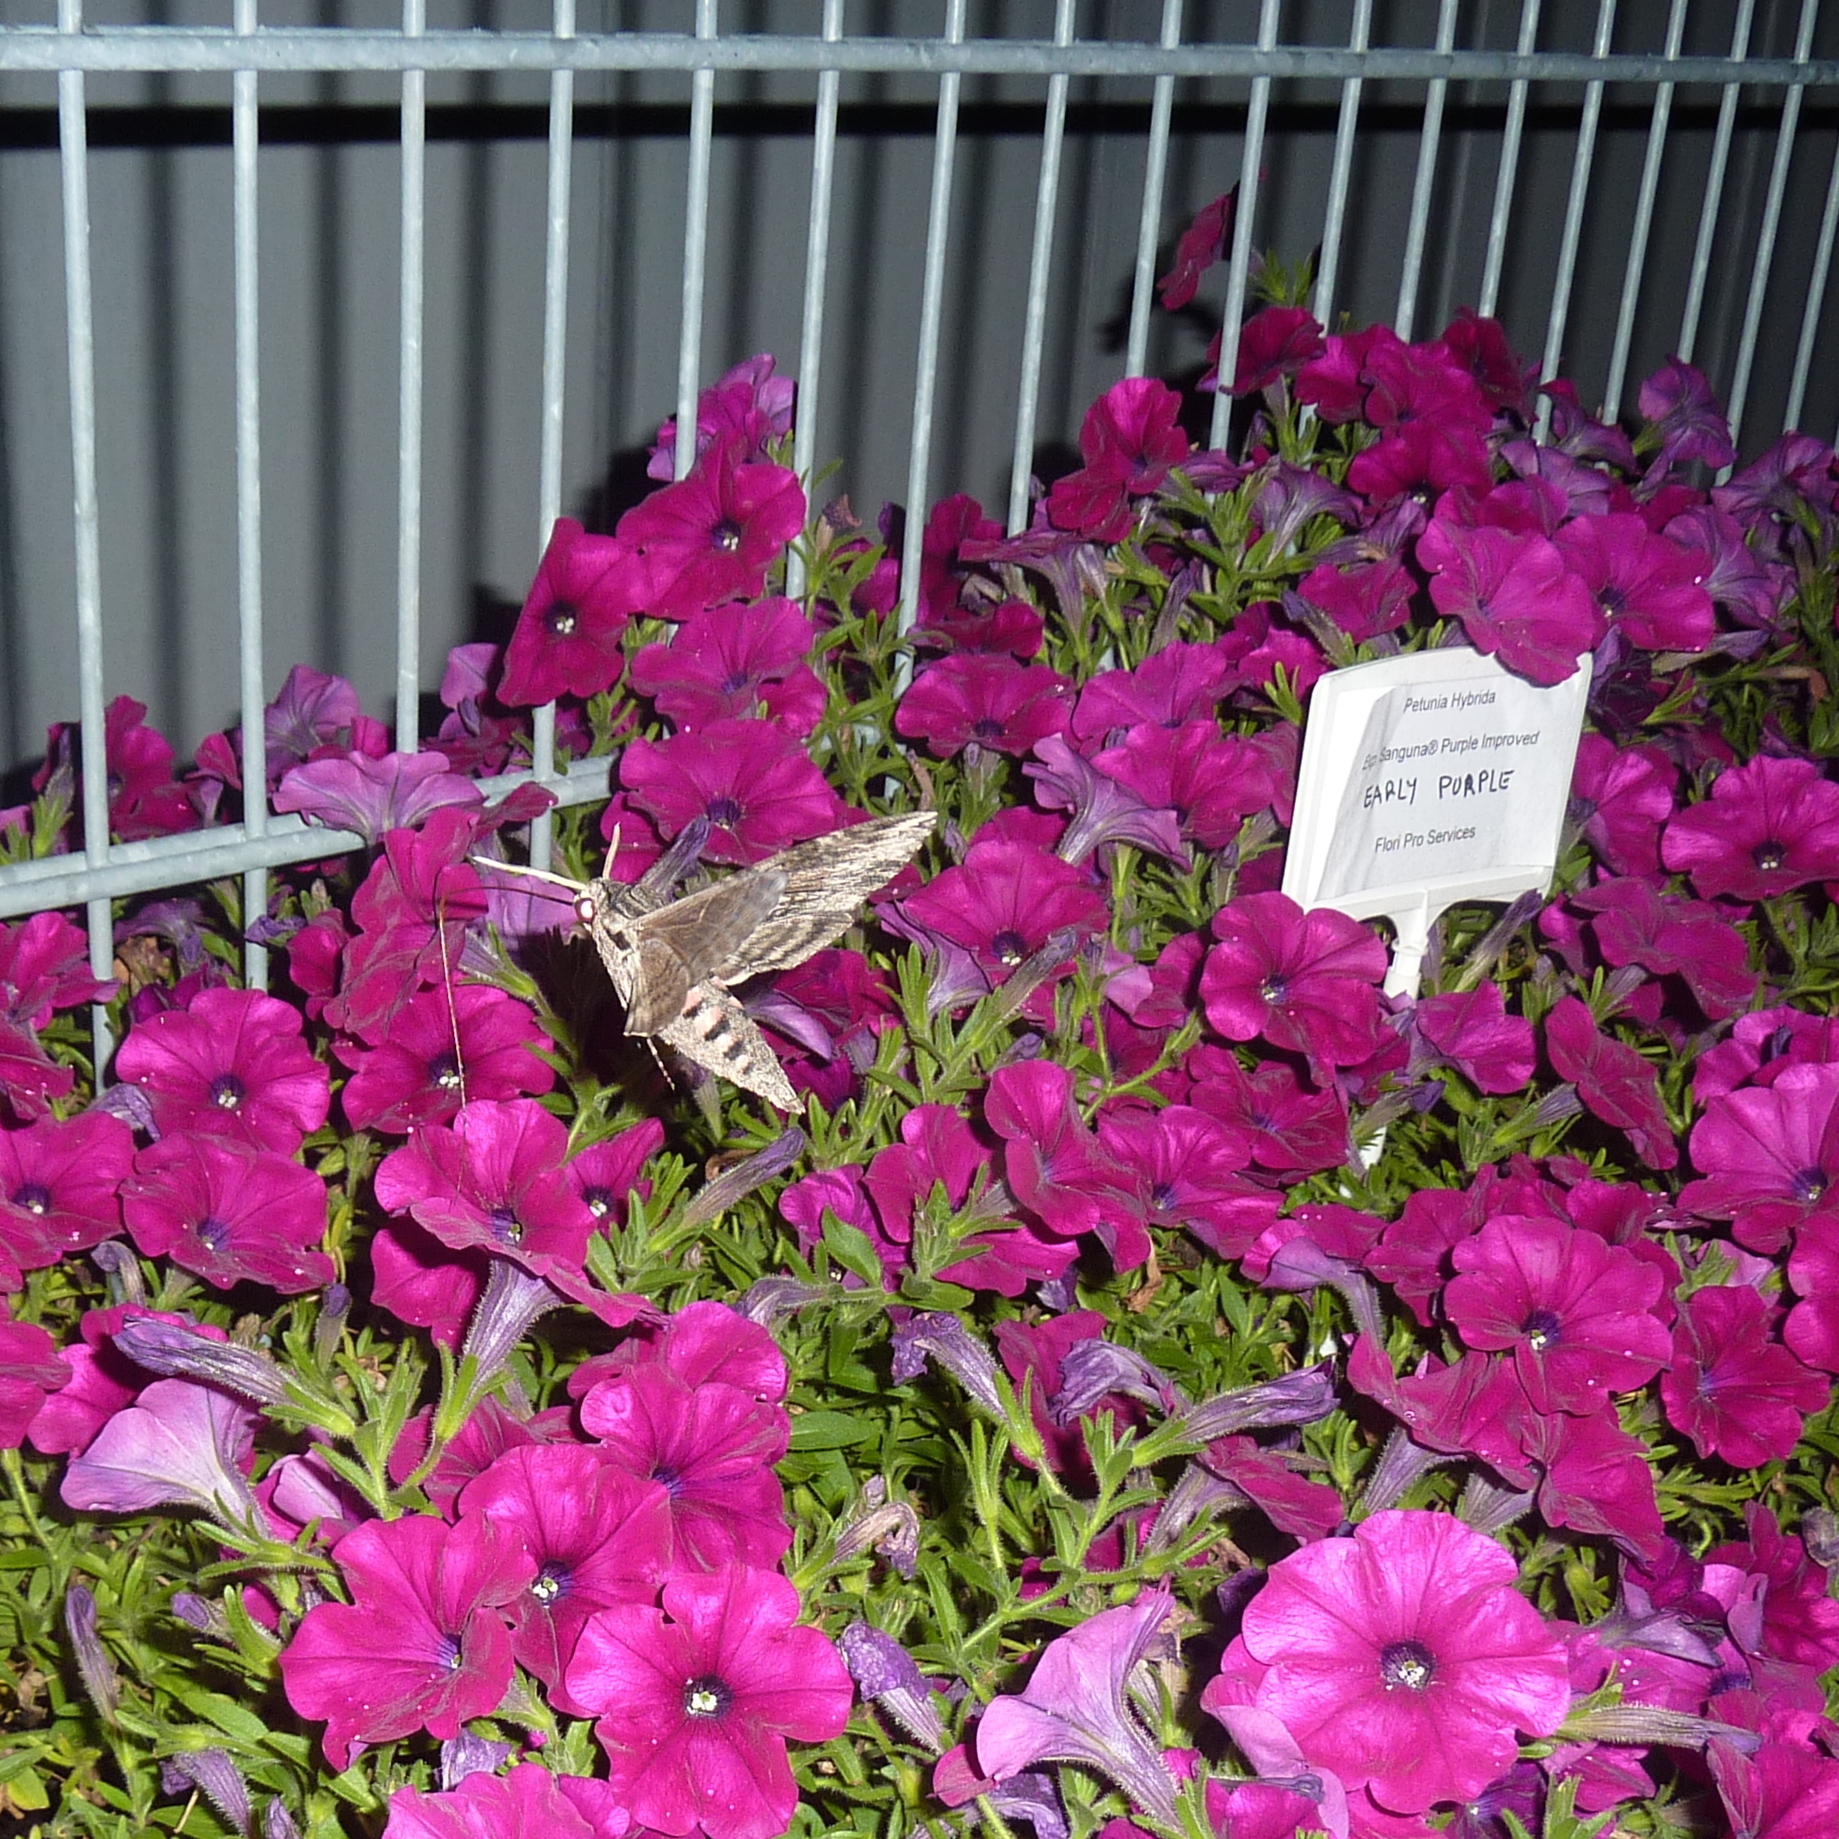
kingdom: Animalia
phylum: Arthropoda
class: Insecta
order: Lepidoptera
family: Sphingidae
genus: Agrius
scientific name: Agrius convolvuli
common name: Convolvulus hawkmoth
